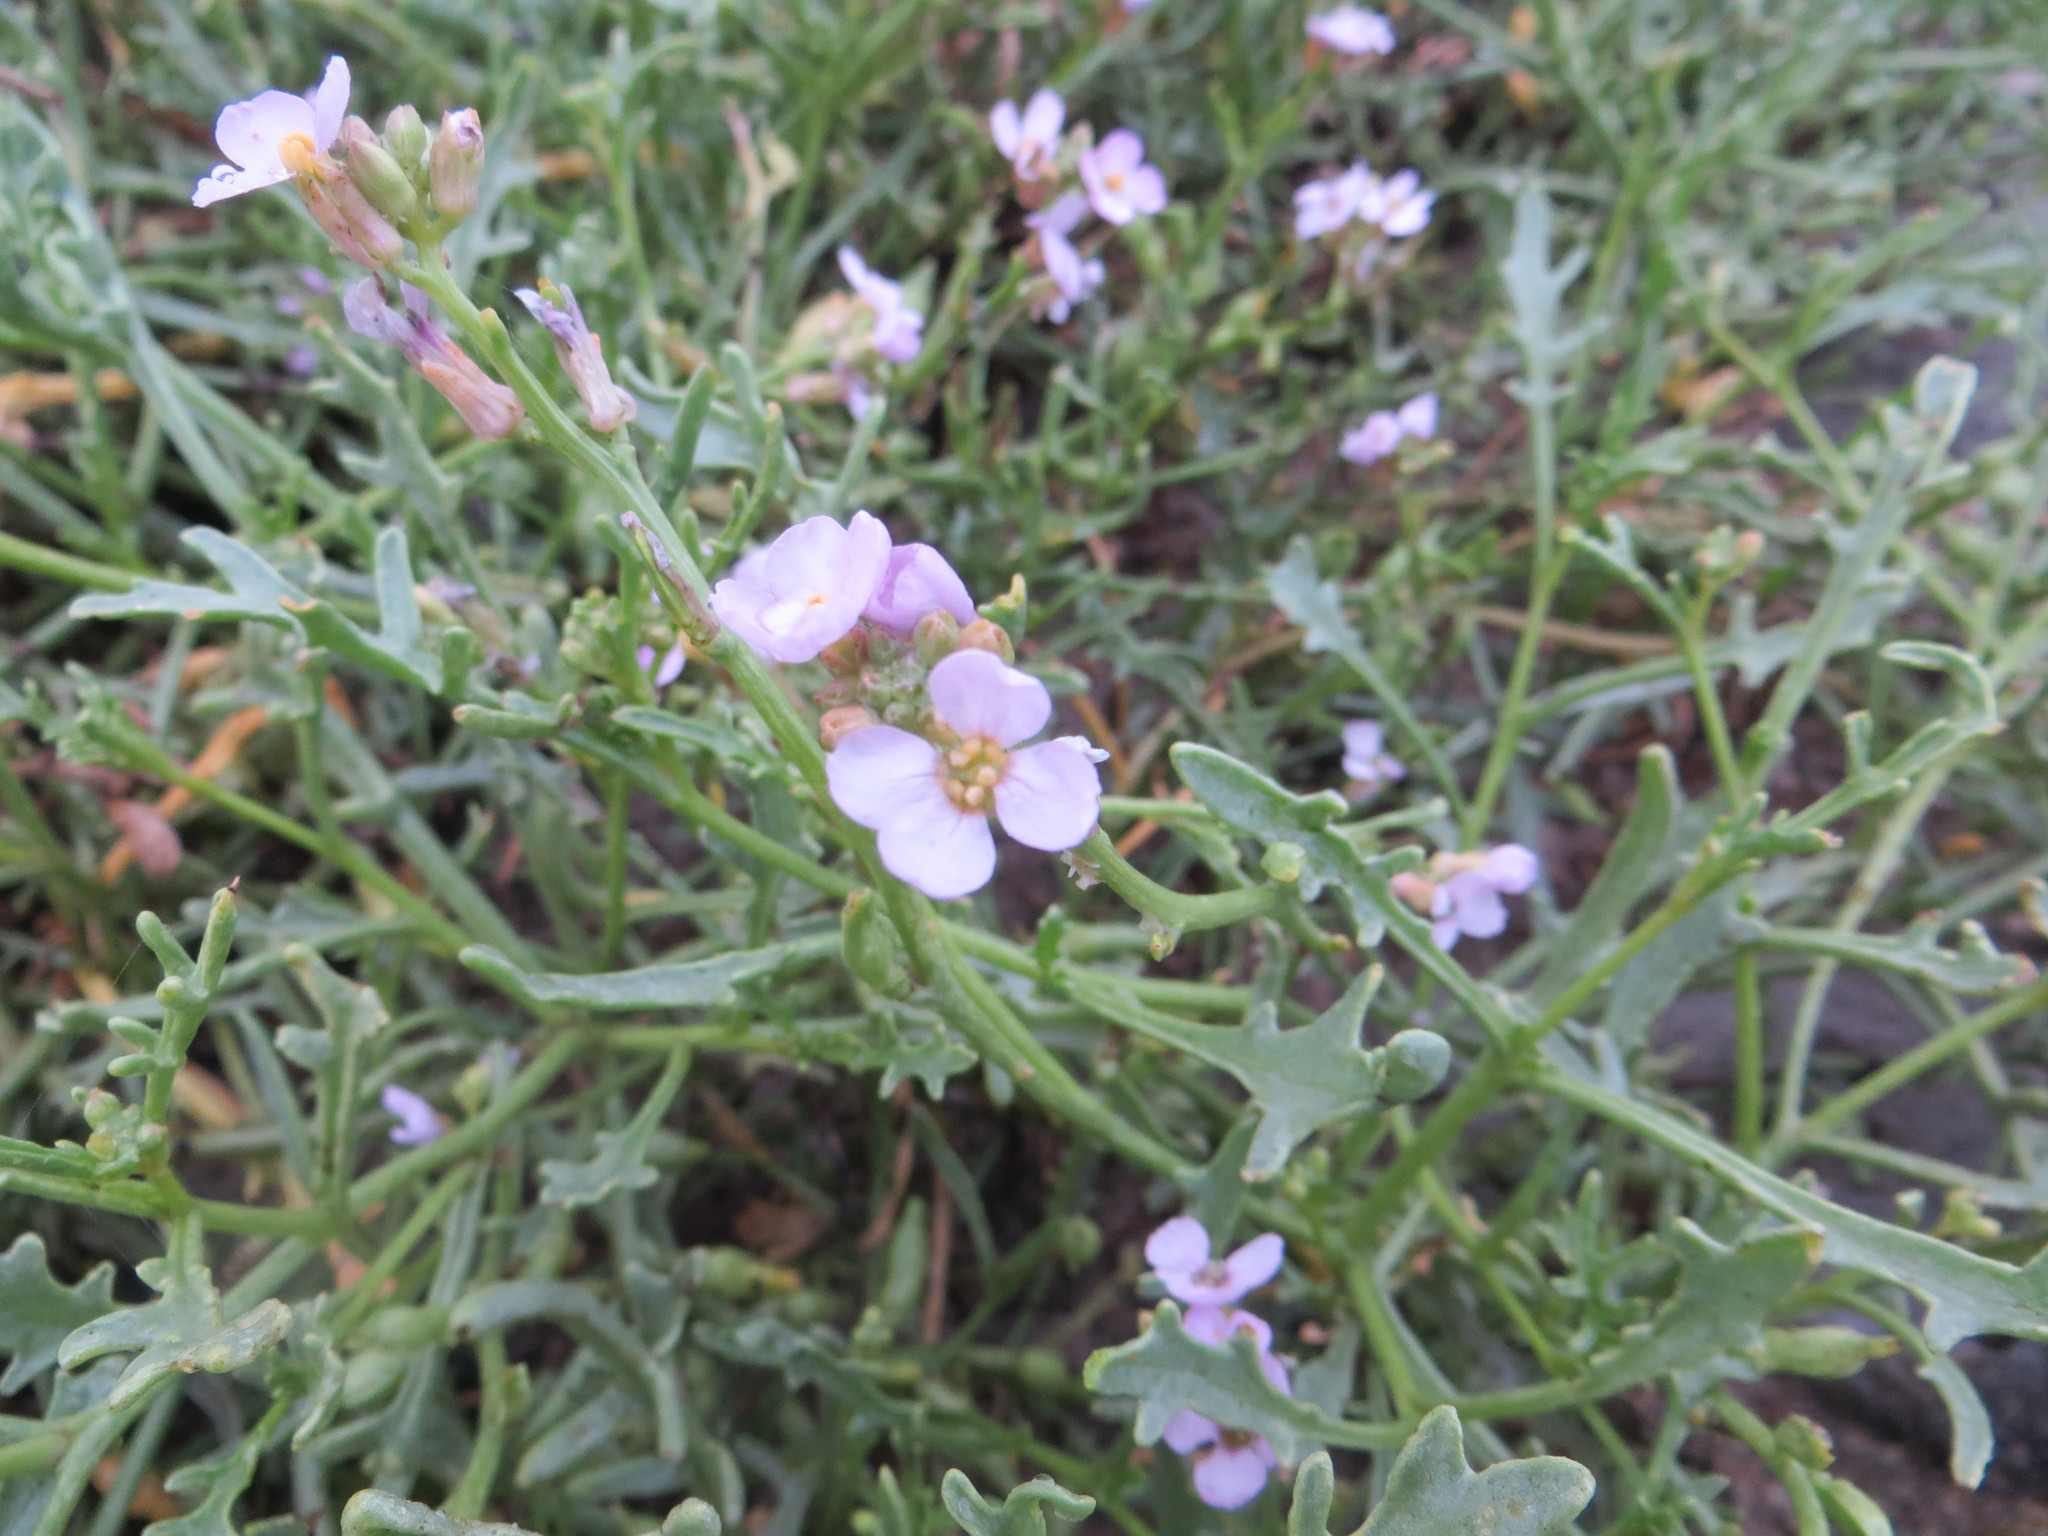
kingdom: Plantae
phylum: Tracheophyta
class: Magnoliopsida
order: Brassicales
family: Brassicaceae
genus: Cakile
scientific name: Cakile maritima
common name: Sea rocket
